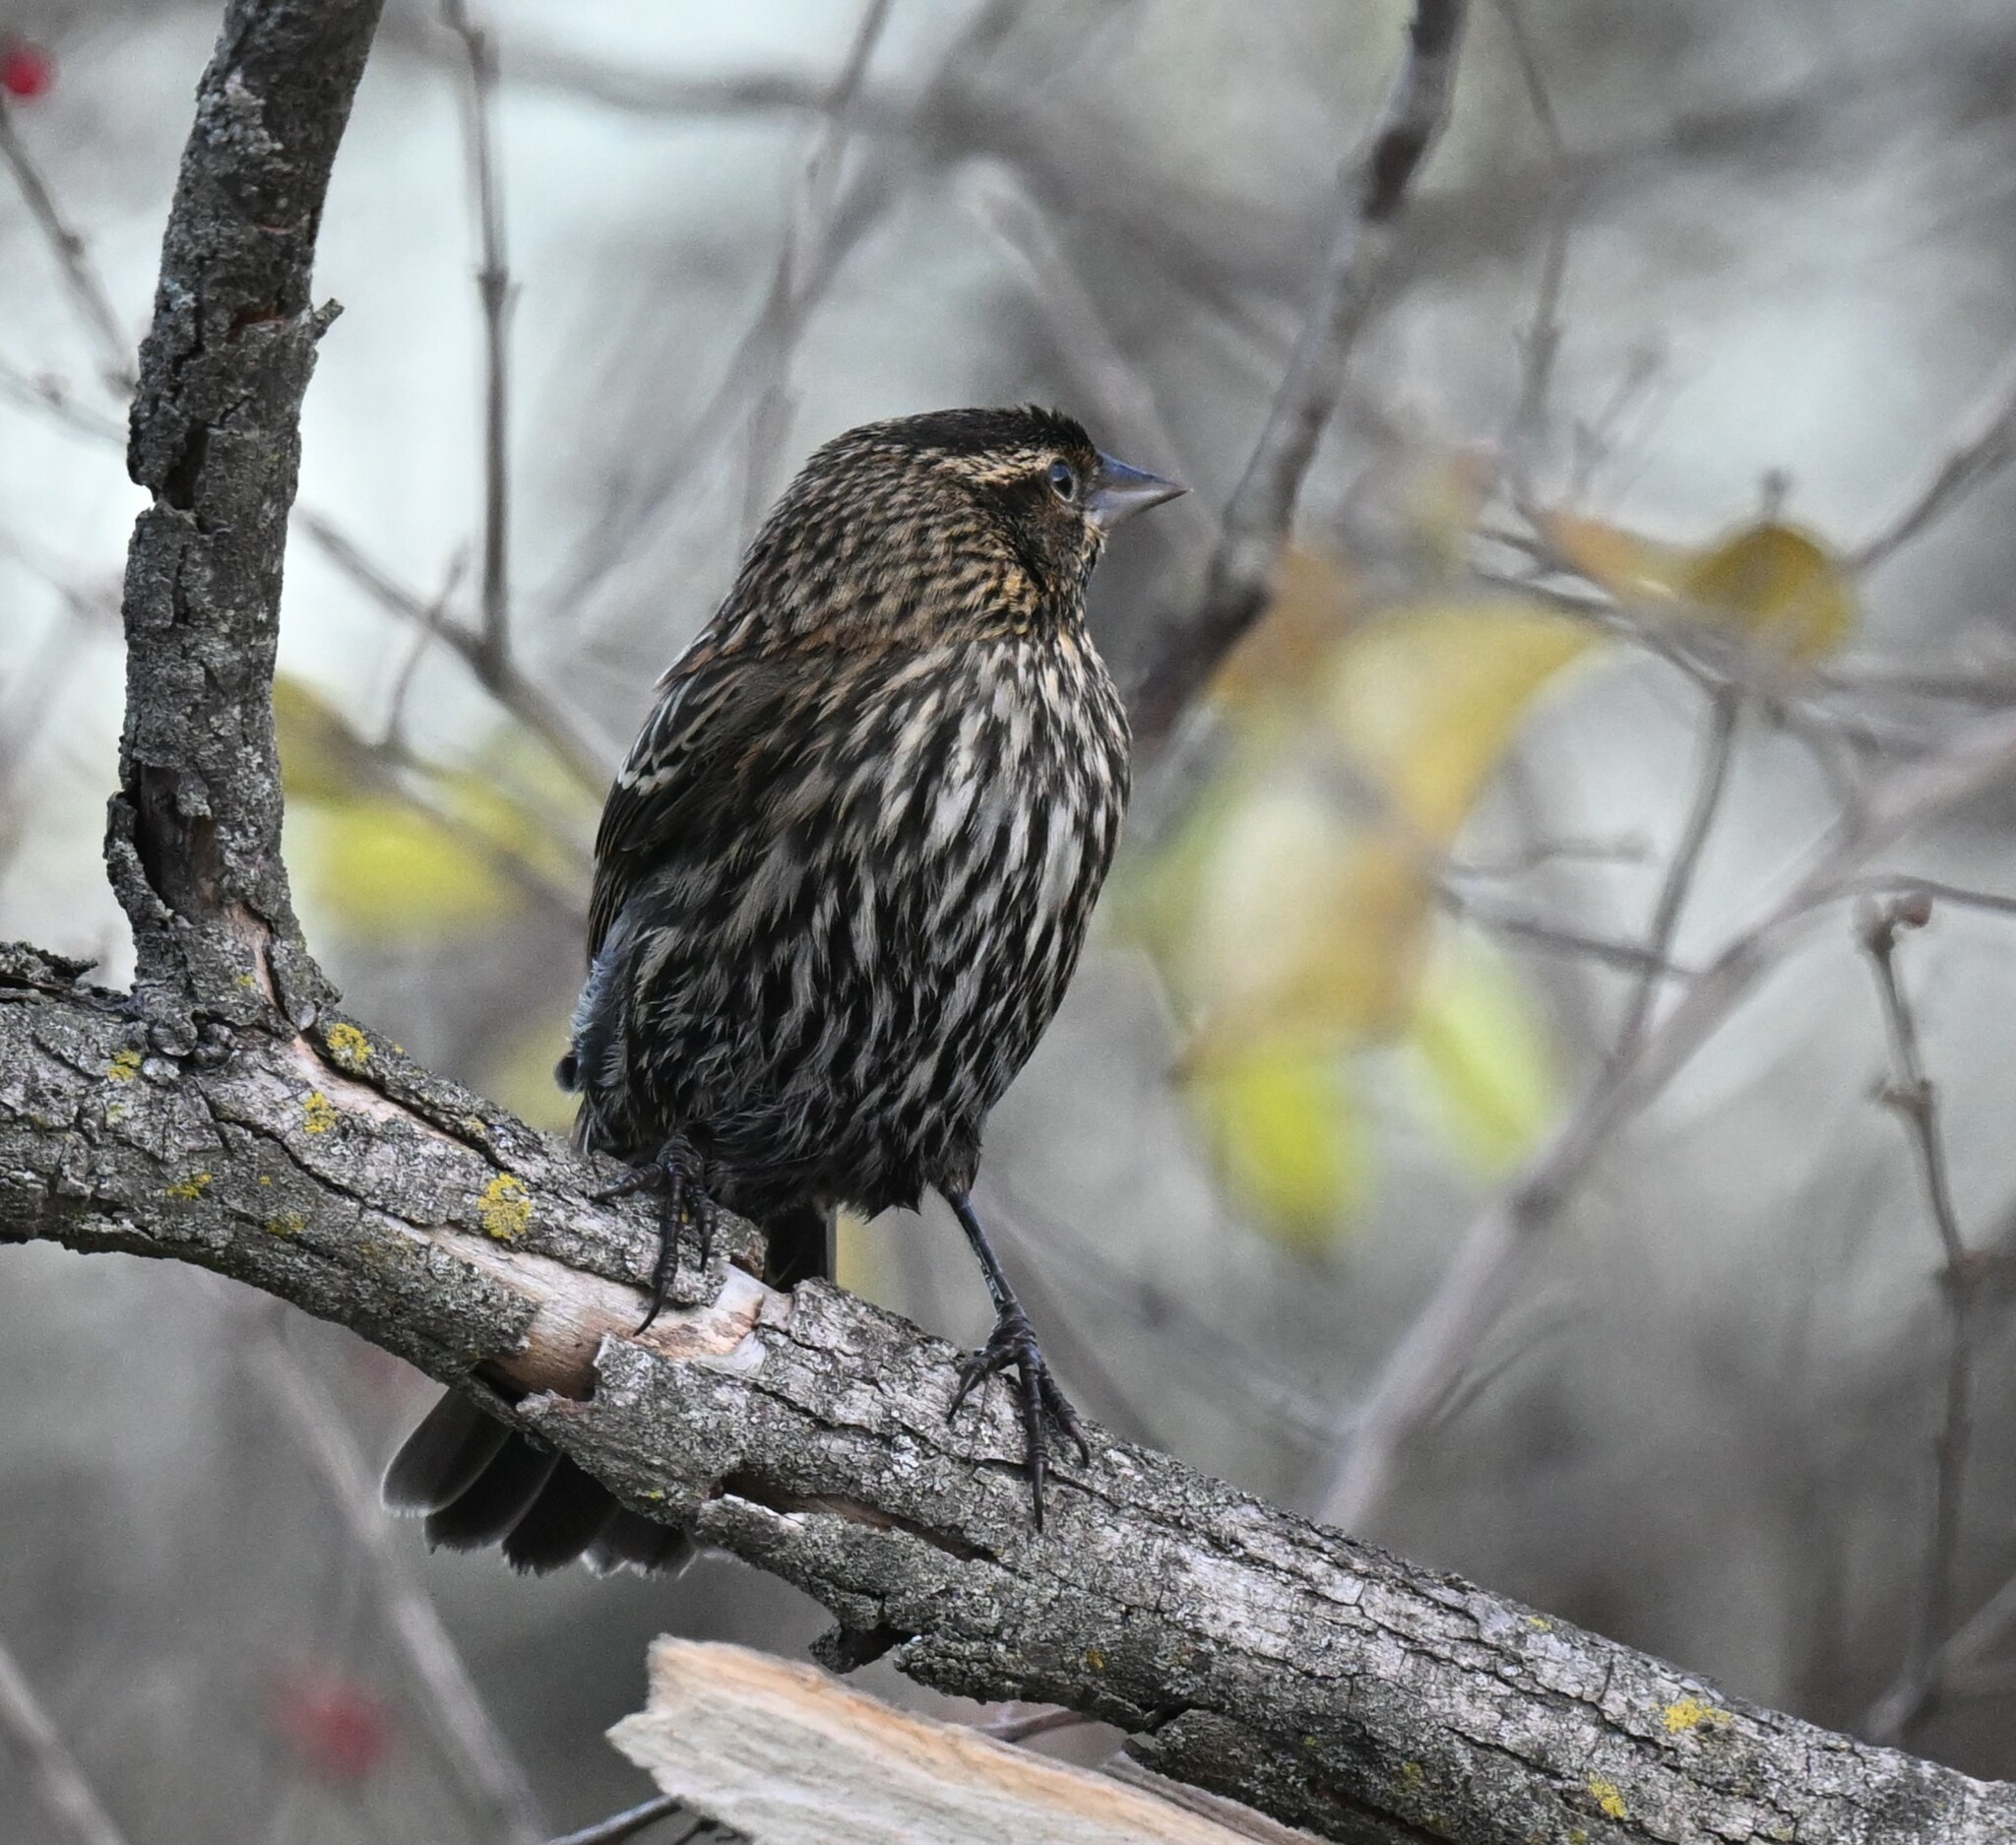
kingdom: Animalia
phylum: Chordata
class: Aves
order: Passeriformes
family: Icteridae
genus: Agelaius
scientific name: Agelaius phoeniceus
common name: Red-winged blackbird
